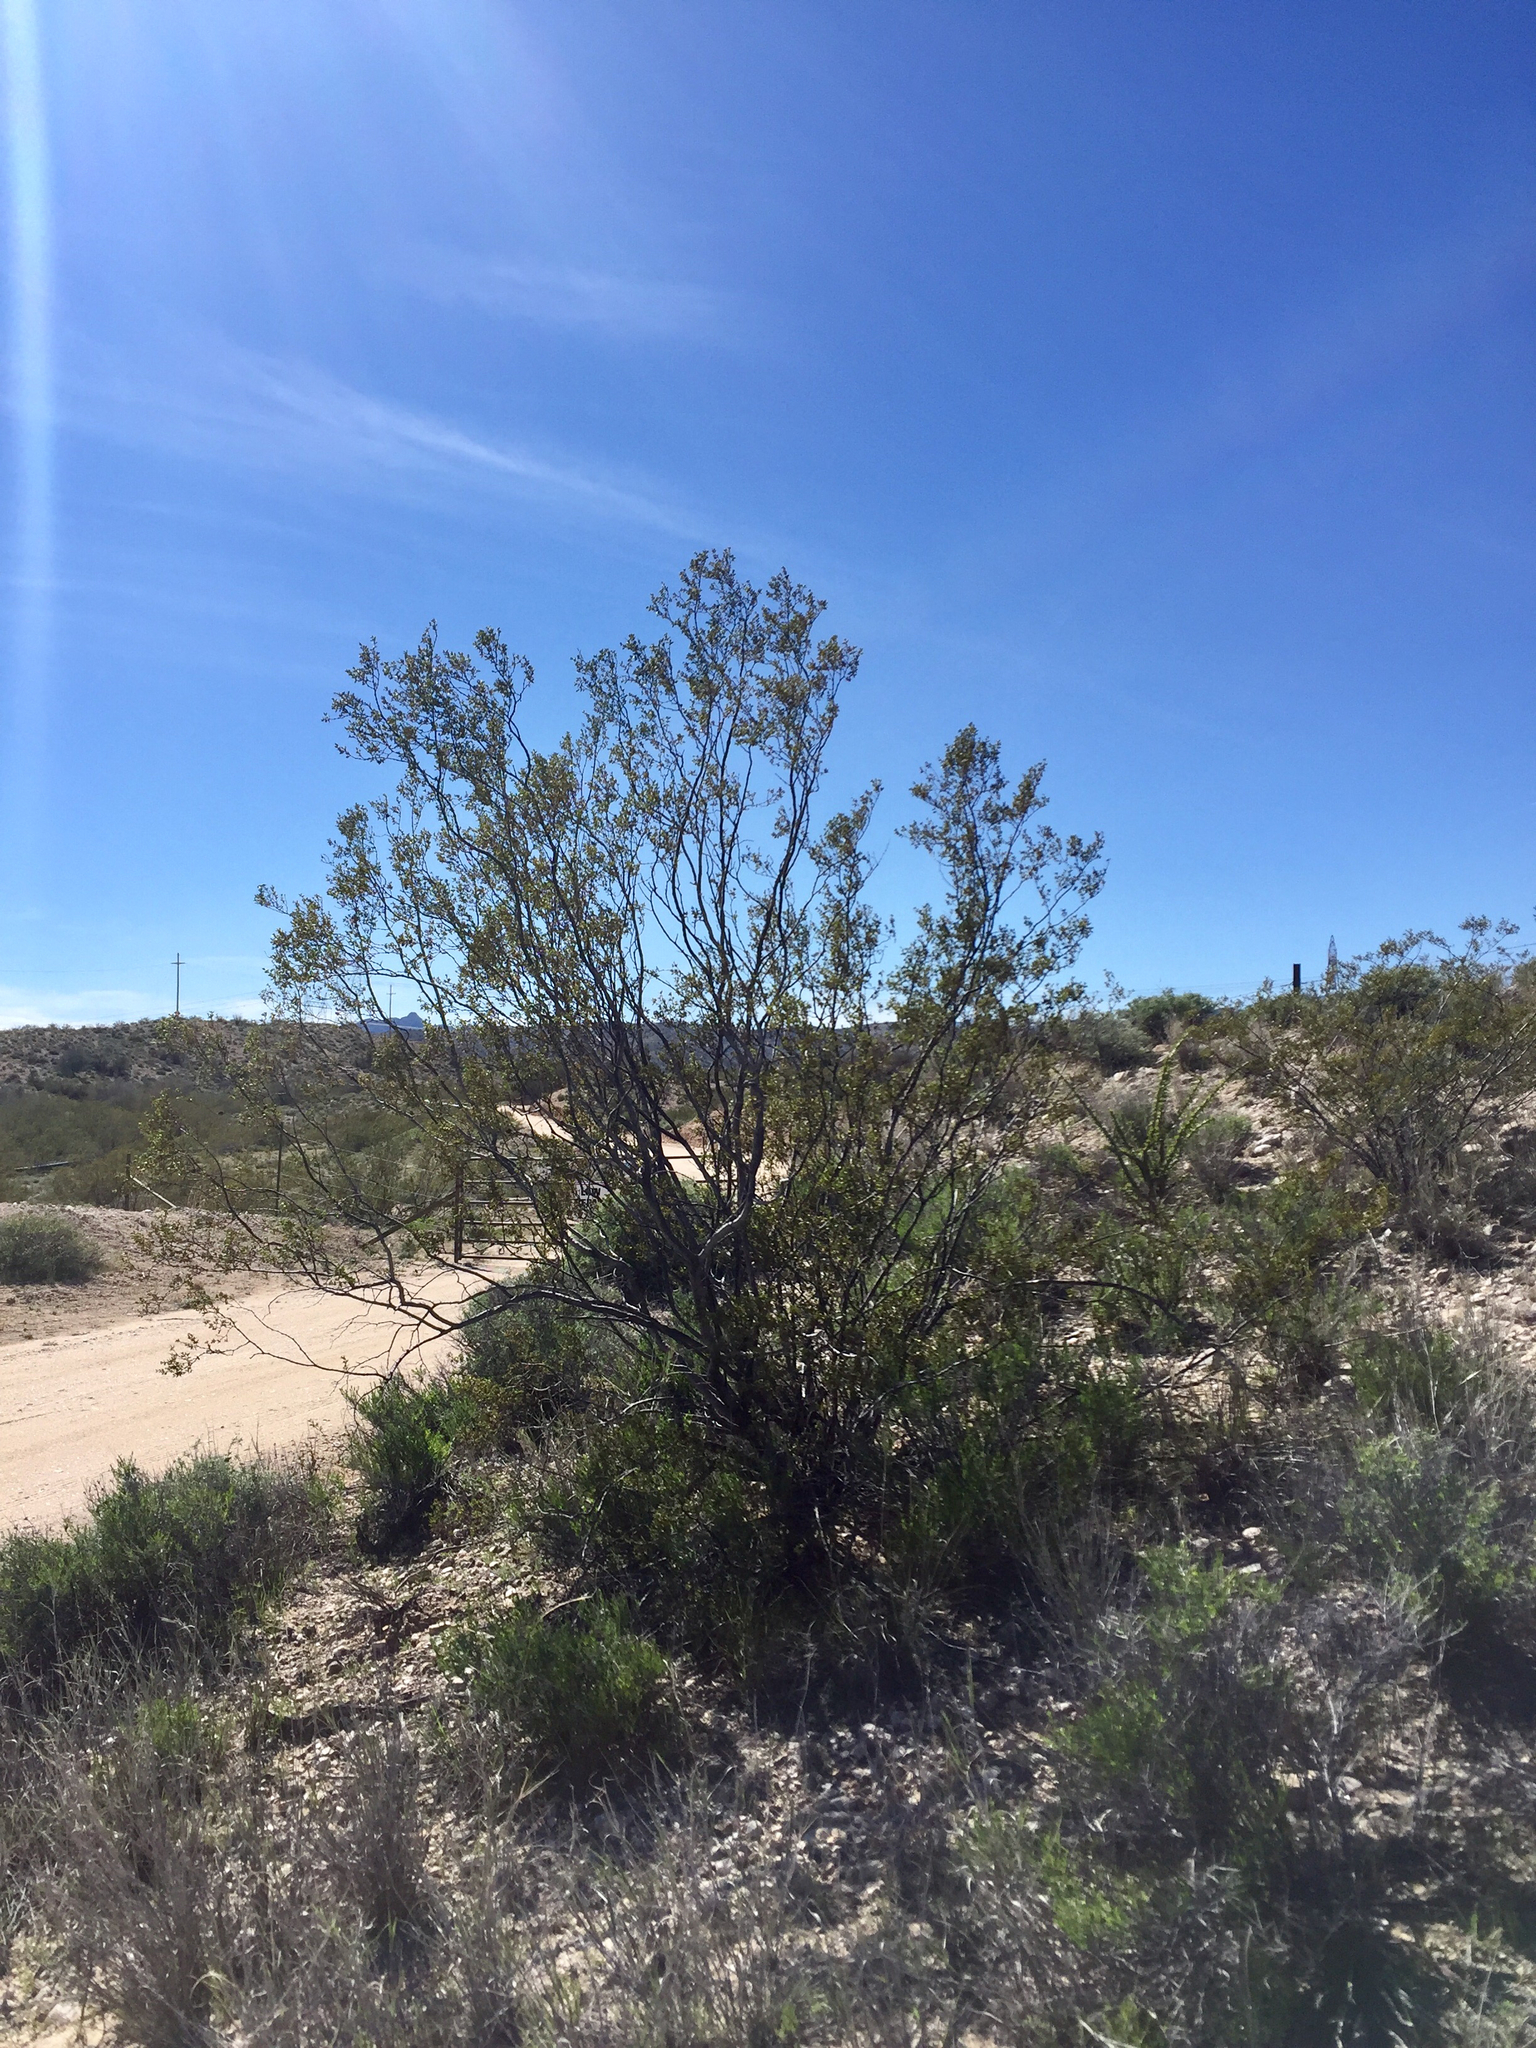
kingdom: Plantae
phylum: Tracheophyta
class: Magnoliopsida
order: Zygophyllales
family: Zygophyllaceae
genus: Larrea
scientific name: Larrea tridentata
